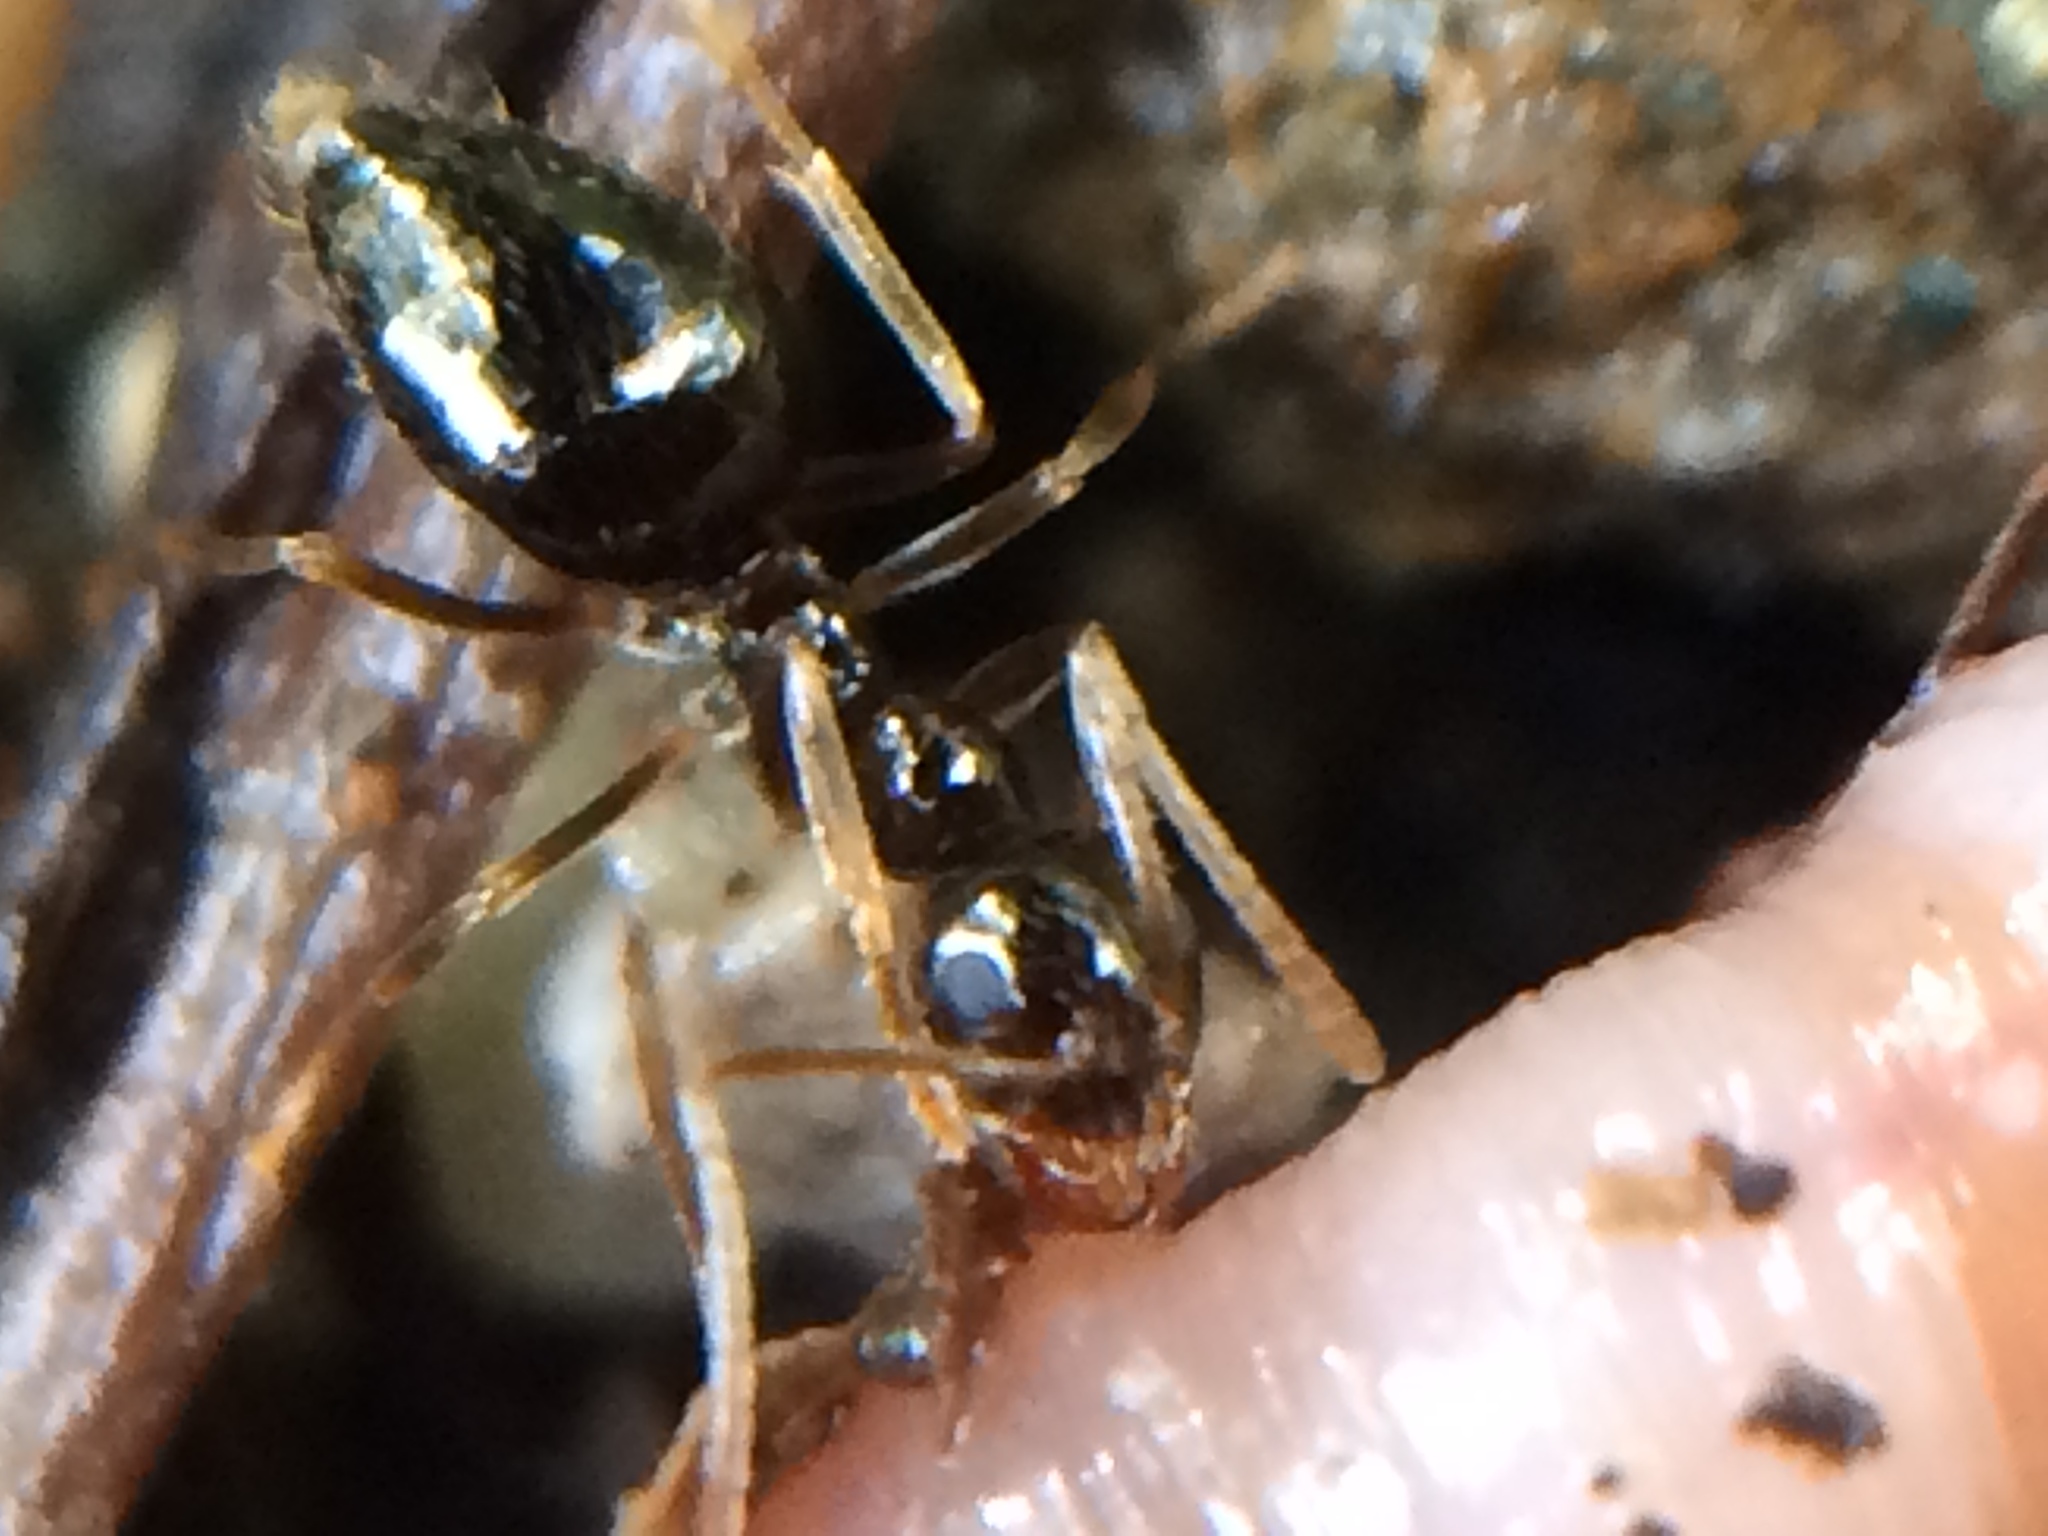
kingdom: Animalia
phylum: Arthropoda
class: Insecta
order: Hymenoptera
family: Formicidae
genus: Prenolepis
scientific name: Prenolepis imparis
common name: Small honey ant
